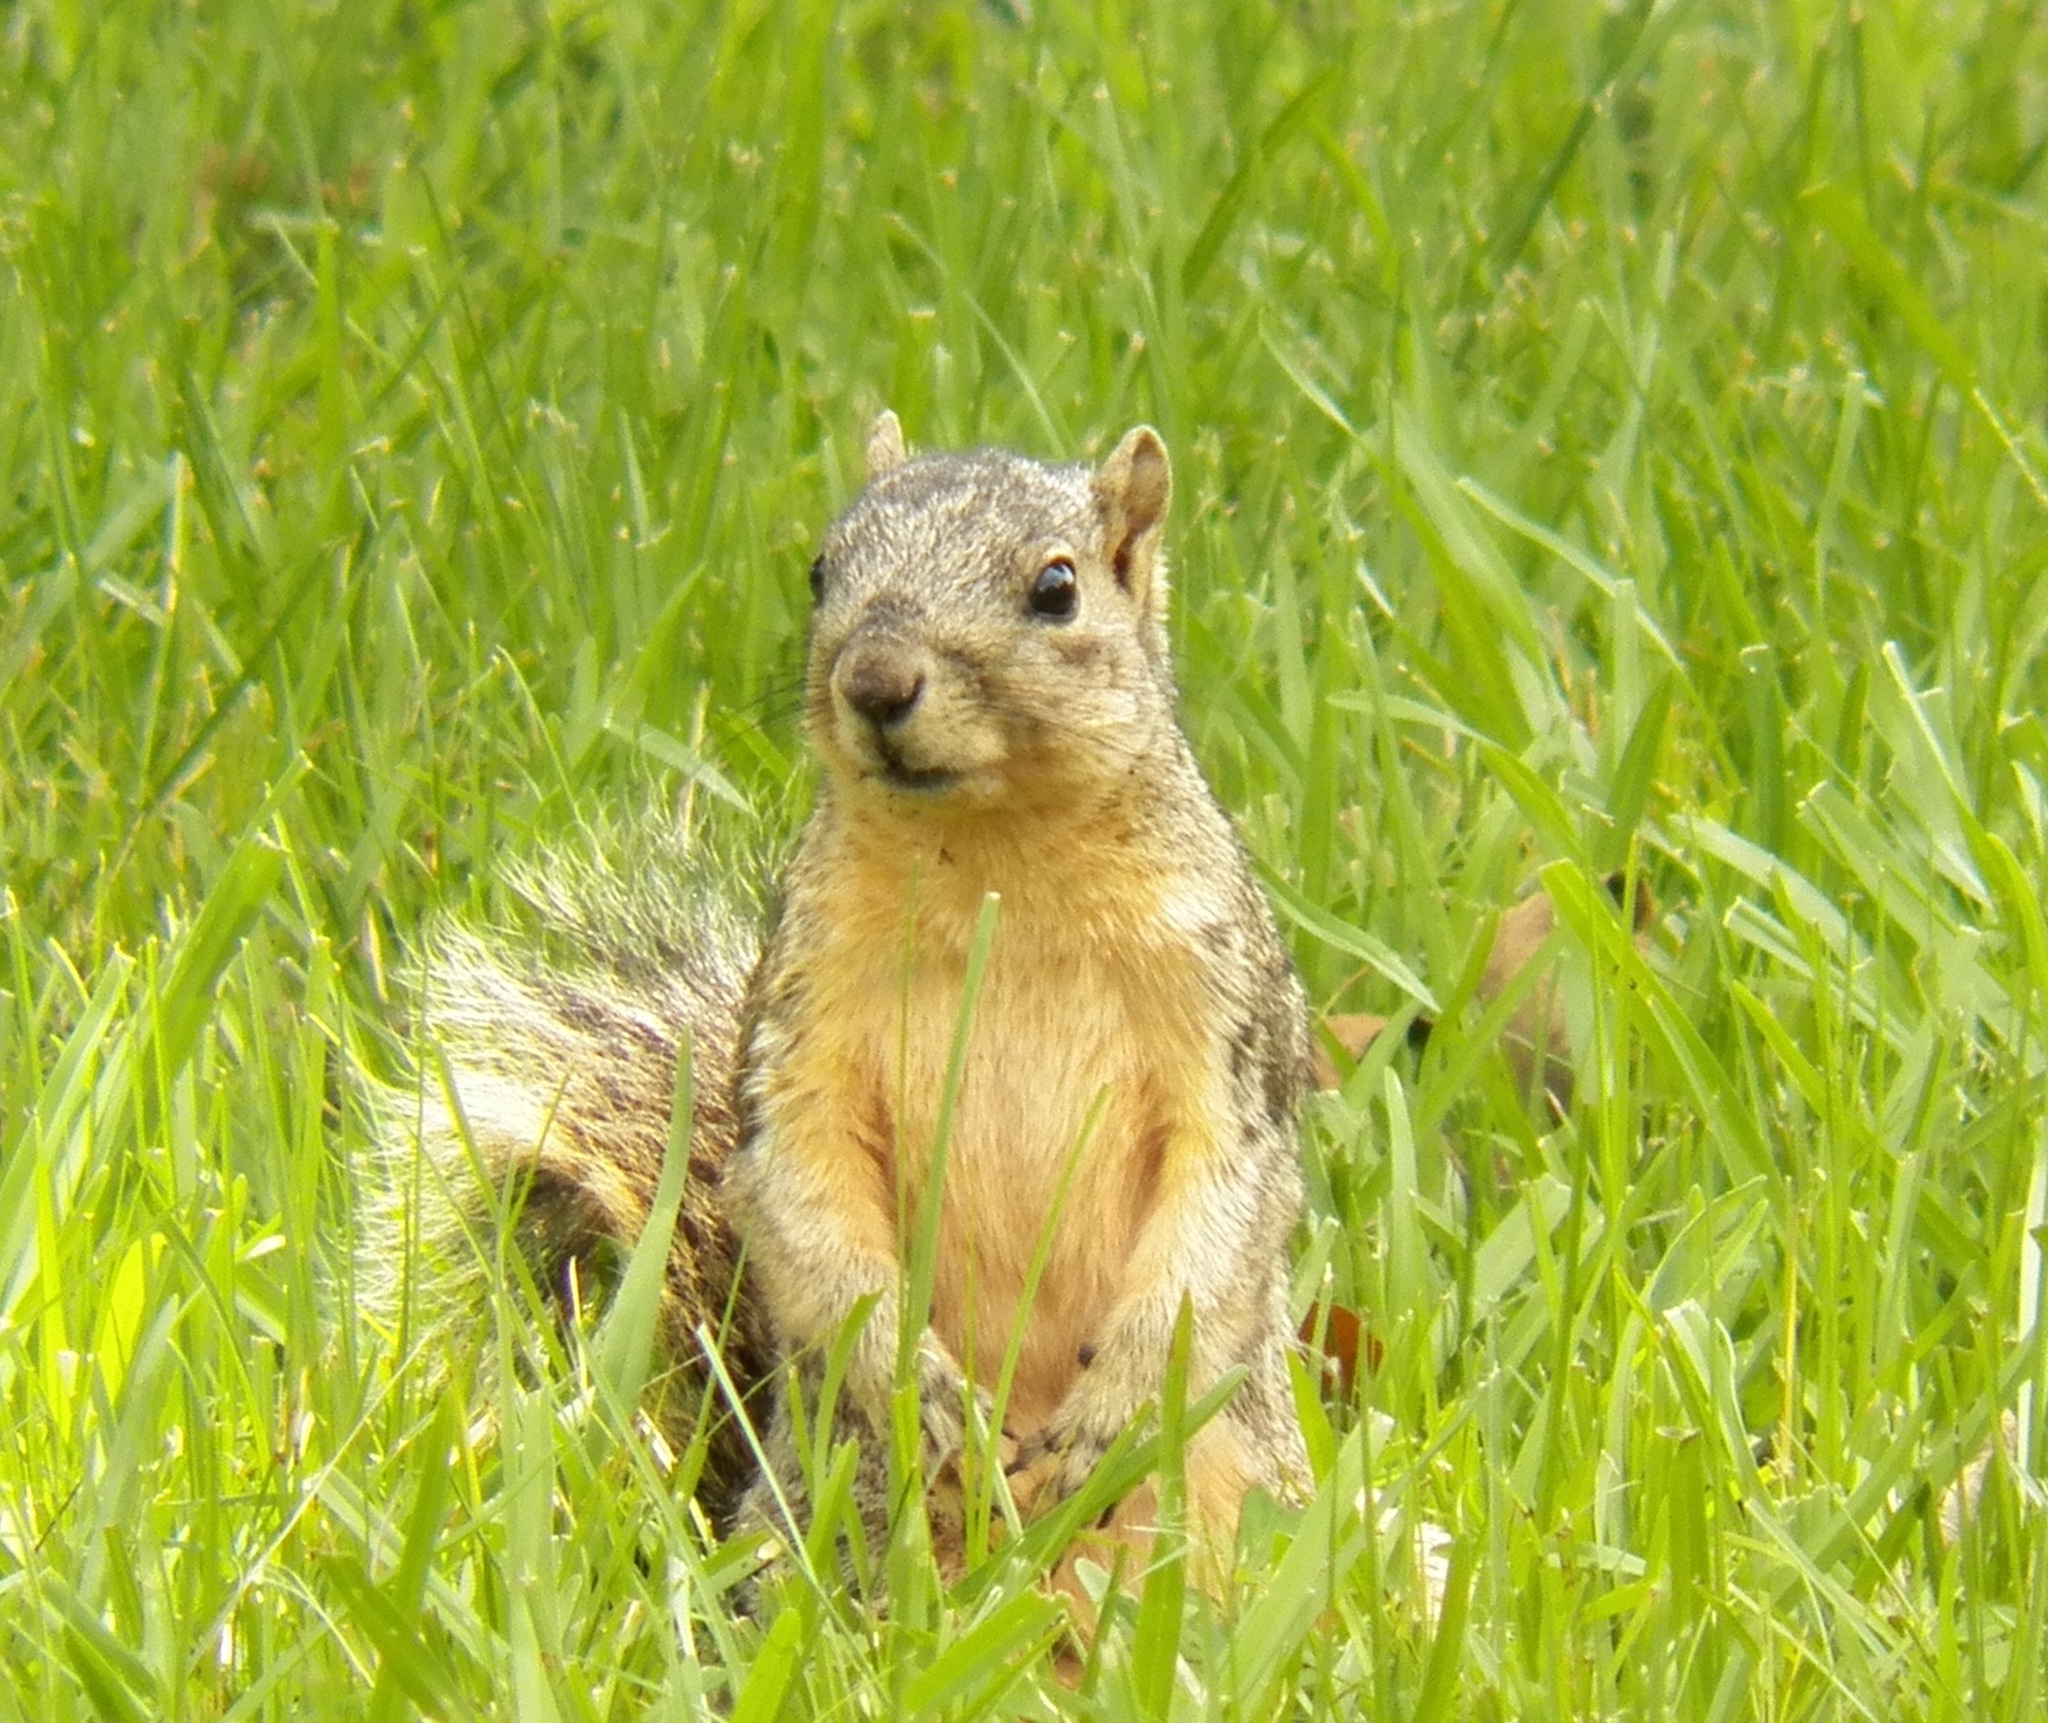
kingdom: Animalia
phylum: Chordata
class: Mammalia
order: Rodentia
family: Sciuridae
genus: Sciurus
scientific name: Sciurus niger
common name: Fox squirrel
